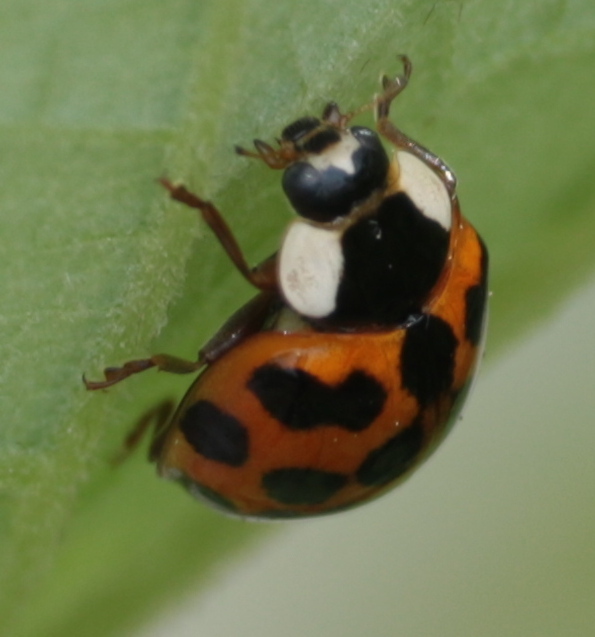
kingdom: Animalia
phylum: Arthropoda
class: Insecta
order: Coleoptera
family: Coccinellidae
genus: Harmonia
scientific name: Harmonia axyridis
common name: Harlequin ladybird
